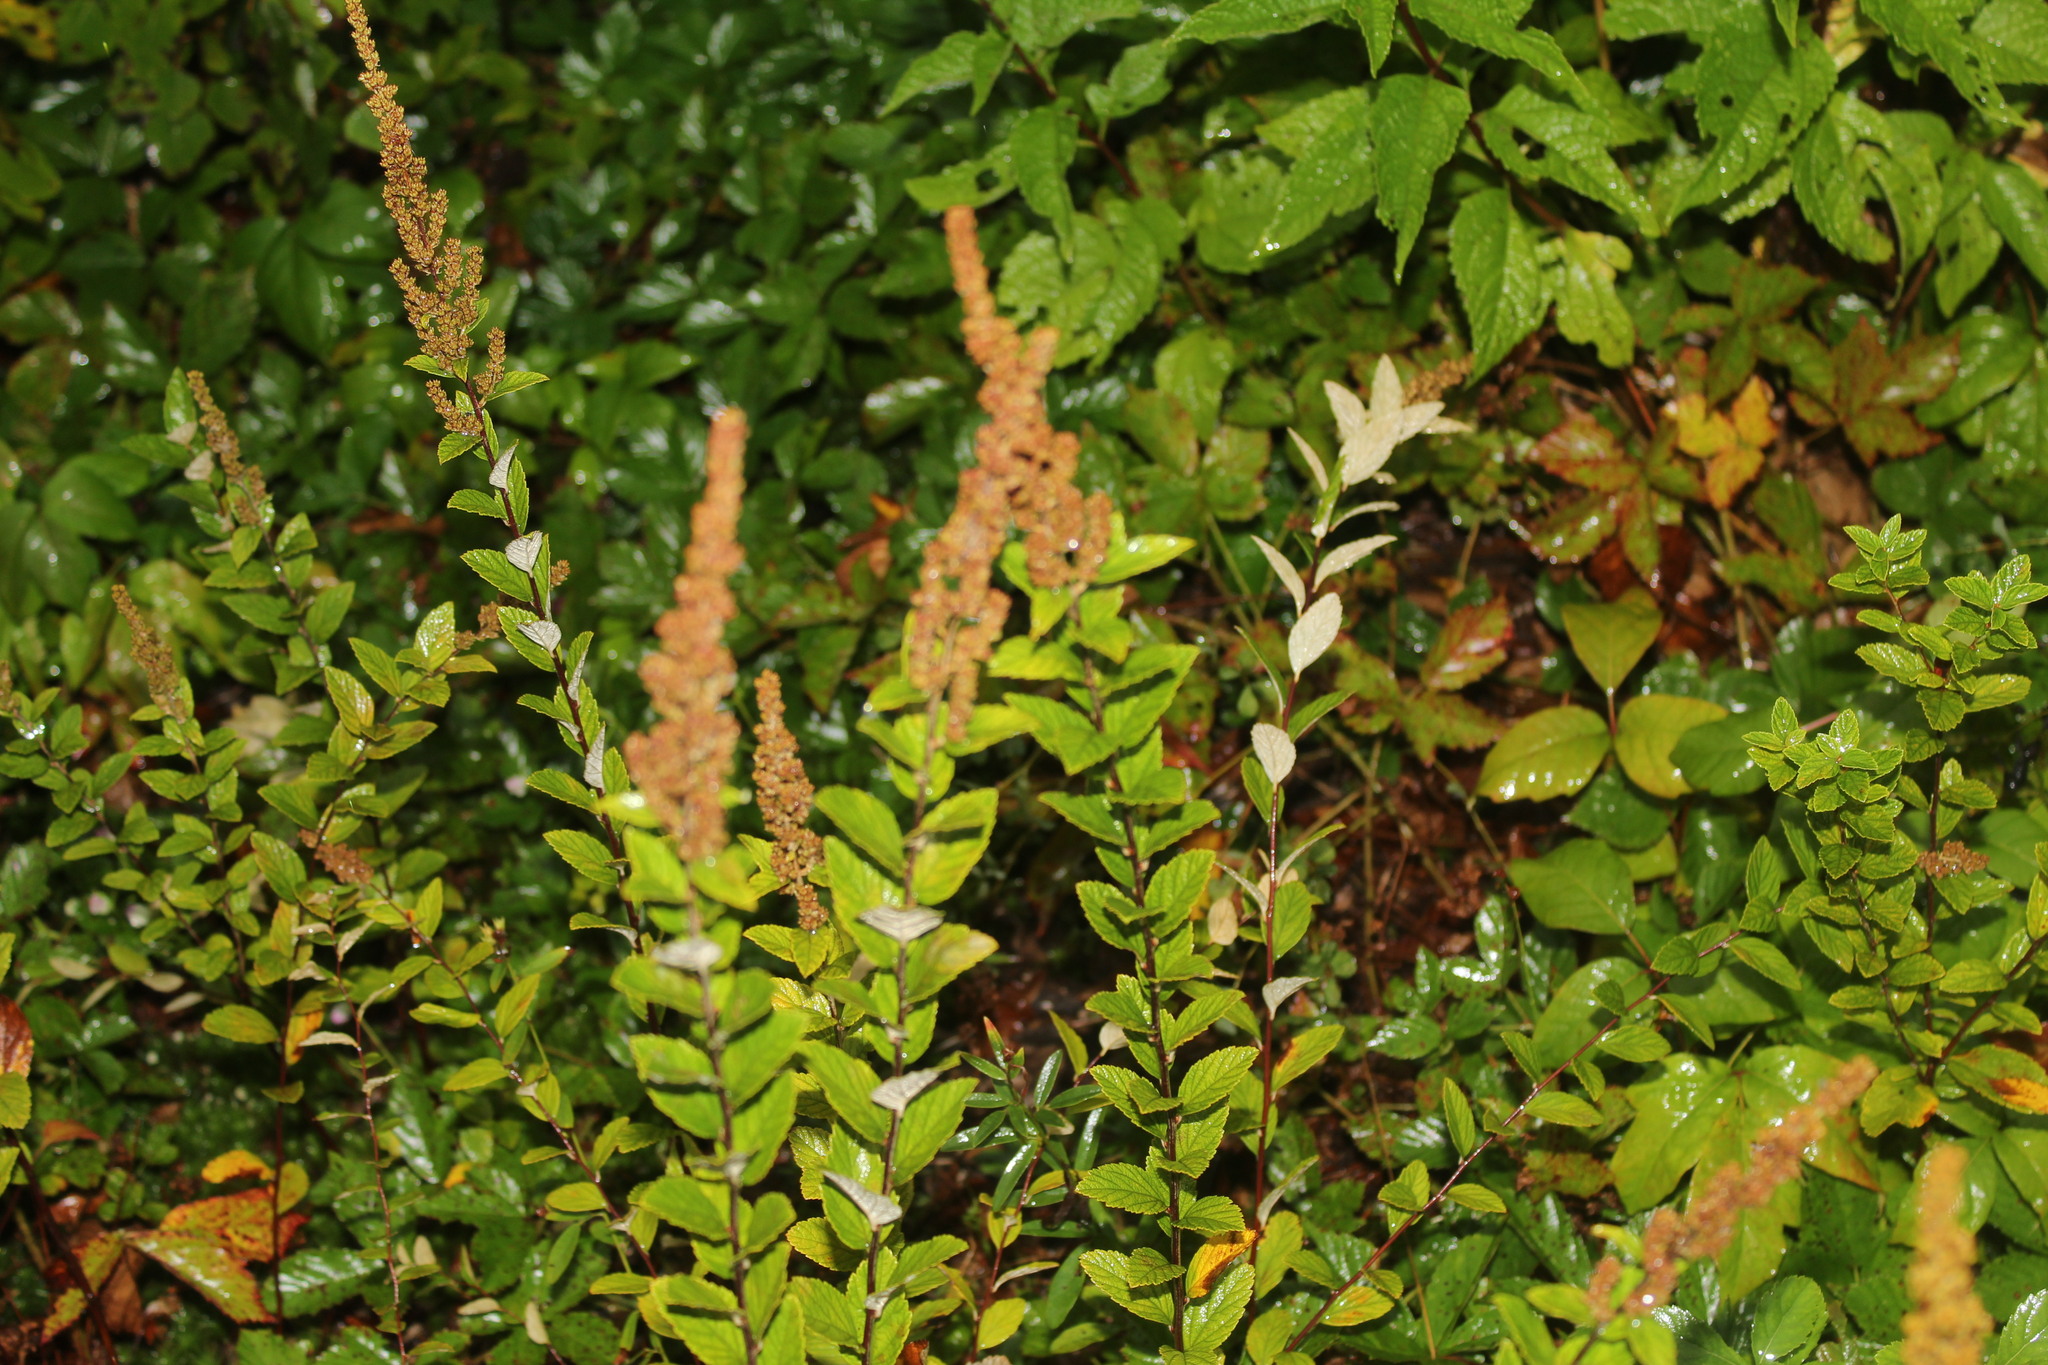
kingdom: Plantae
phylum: Tracheophyta
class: Magnoliopsida
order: Rosales
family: Rosaceae
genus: Spiraea
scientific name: Spiraea tomentosa
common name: Hardhack
